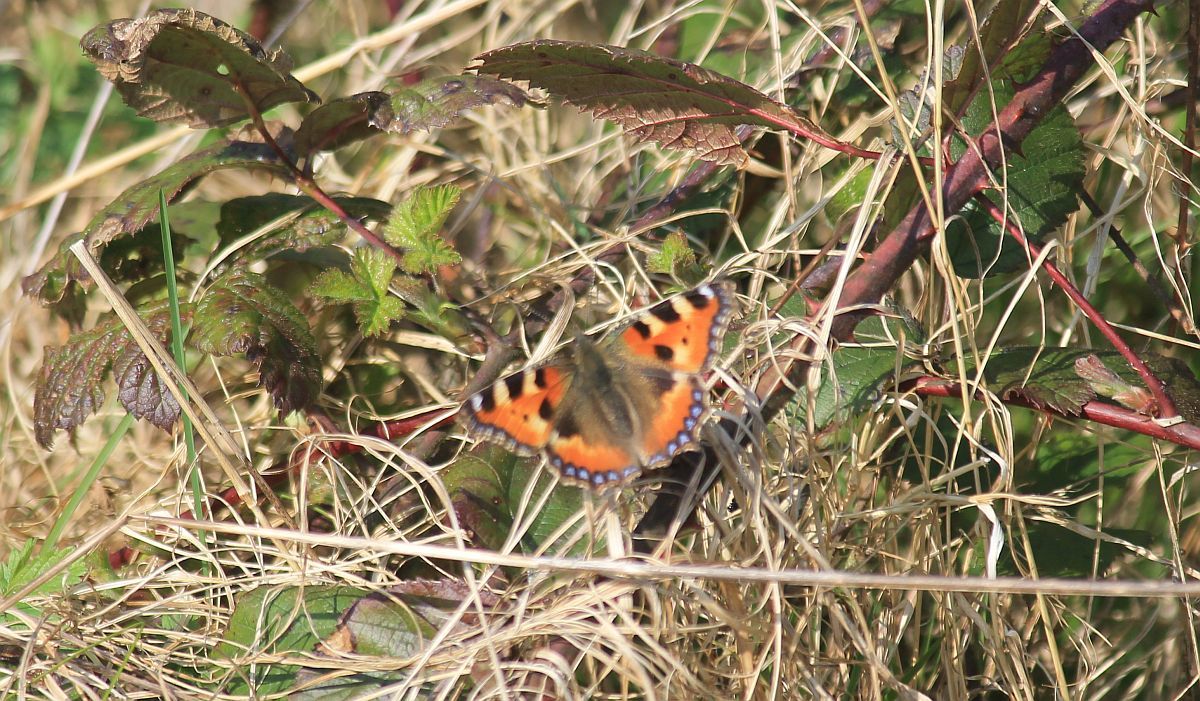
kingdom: Animalia
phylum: Arthropoda
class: Insecta
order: Lepidoptera
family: Nymphalidae
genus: Aglais
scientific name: Aglais urticae
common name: Small tortoiseshell
